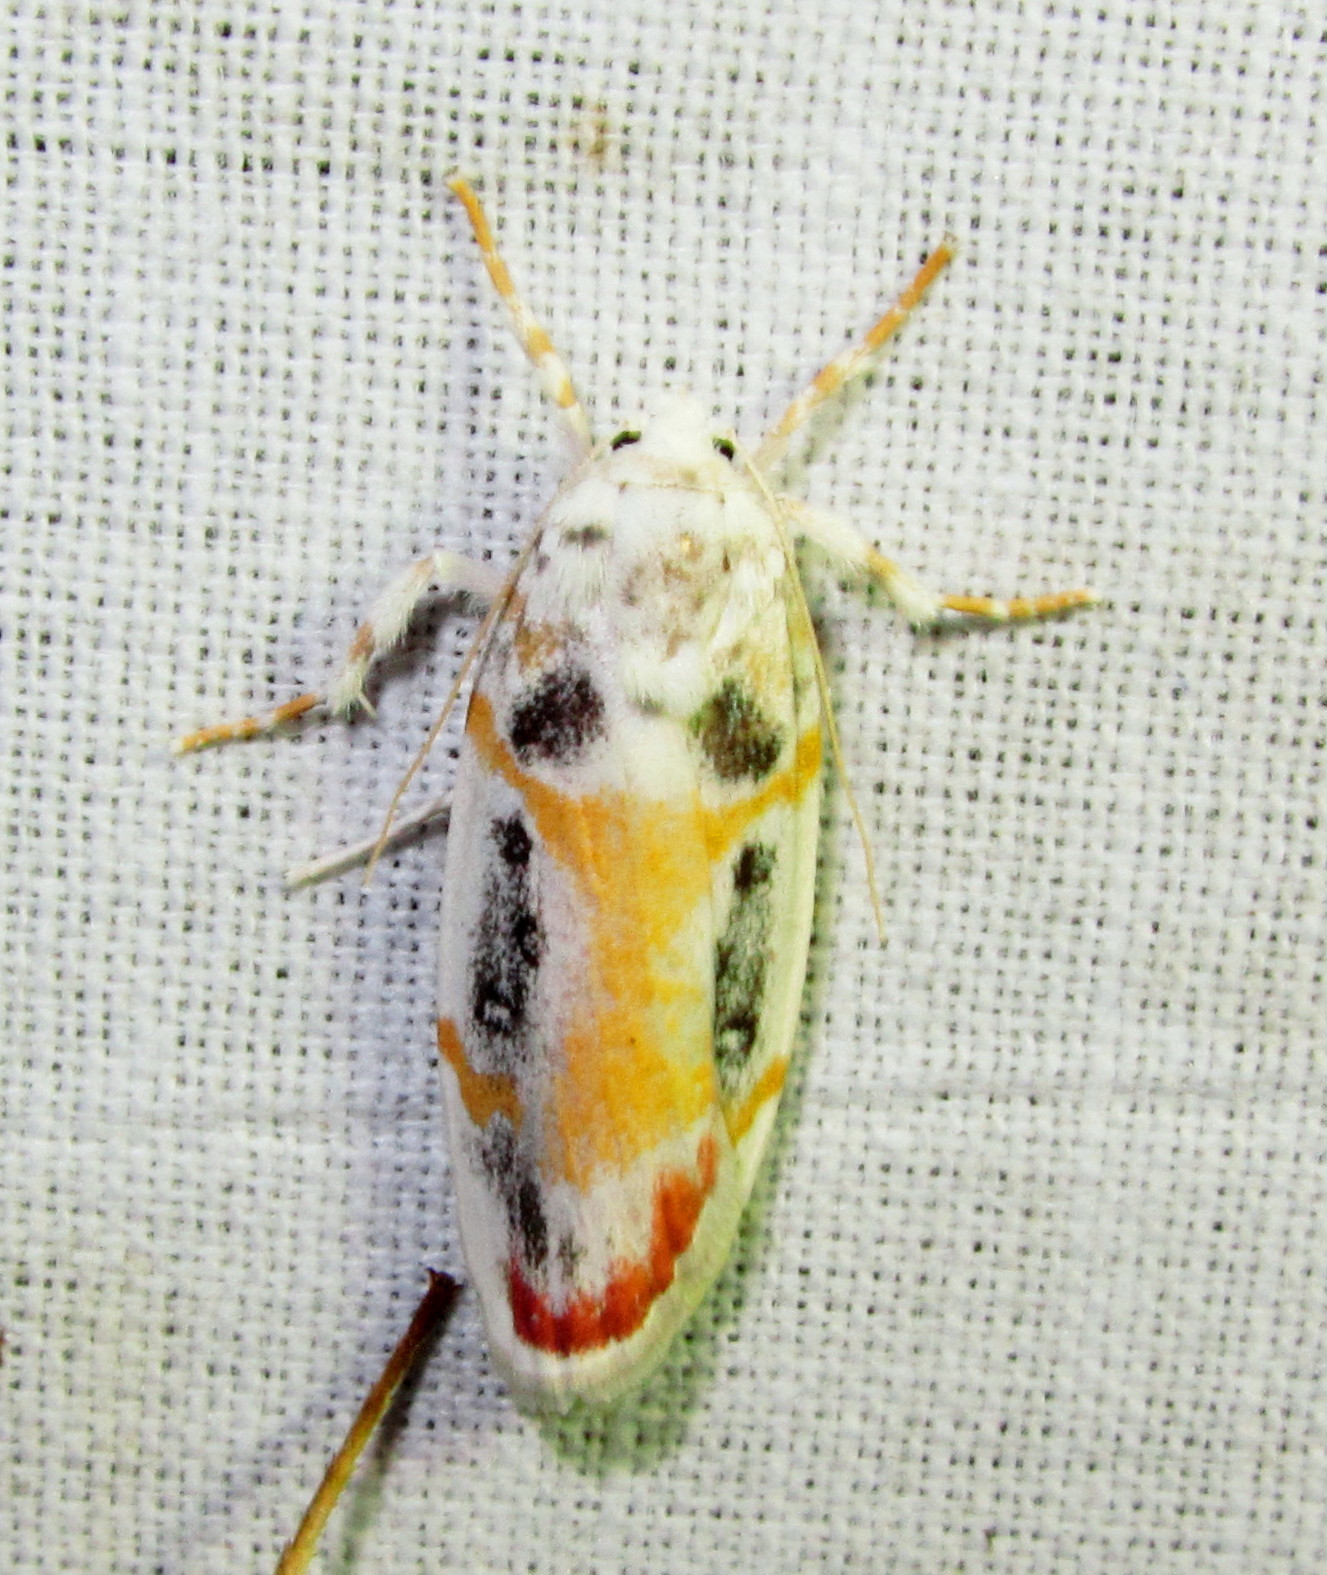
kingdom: Animalia
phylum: Arthropoda
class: Insecta
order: Lepidoptera
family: Erebidae
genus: Cyana
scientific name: Cyana gelida
